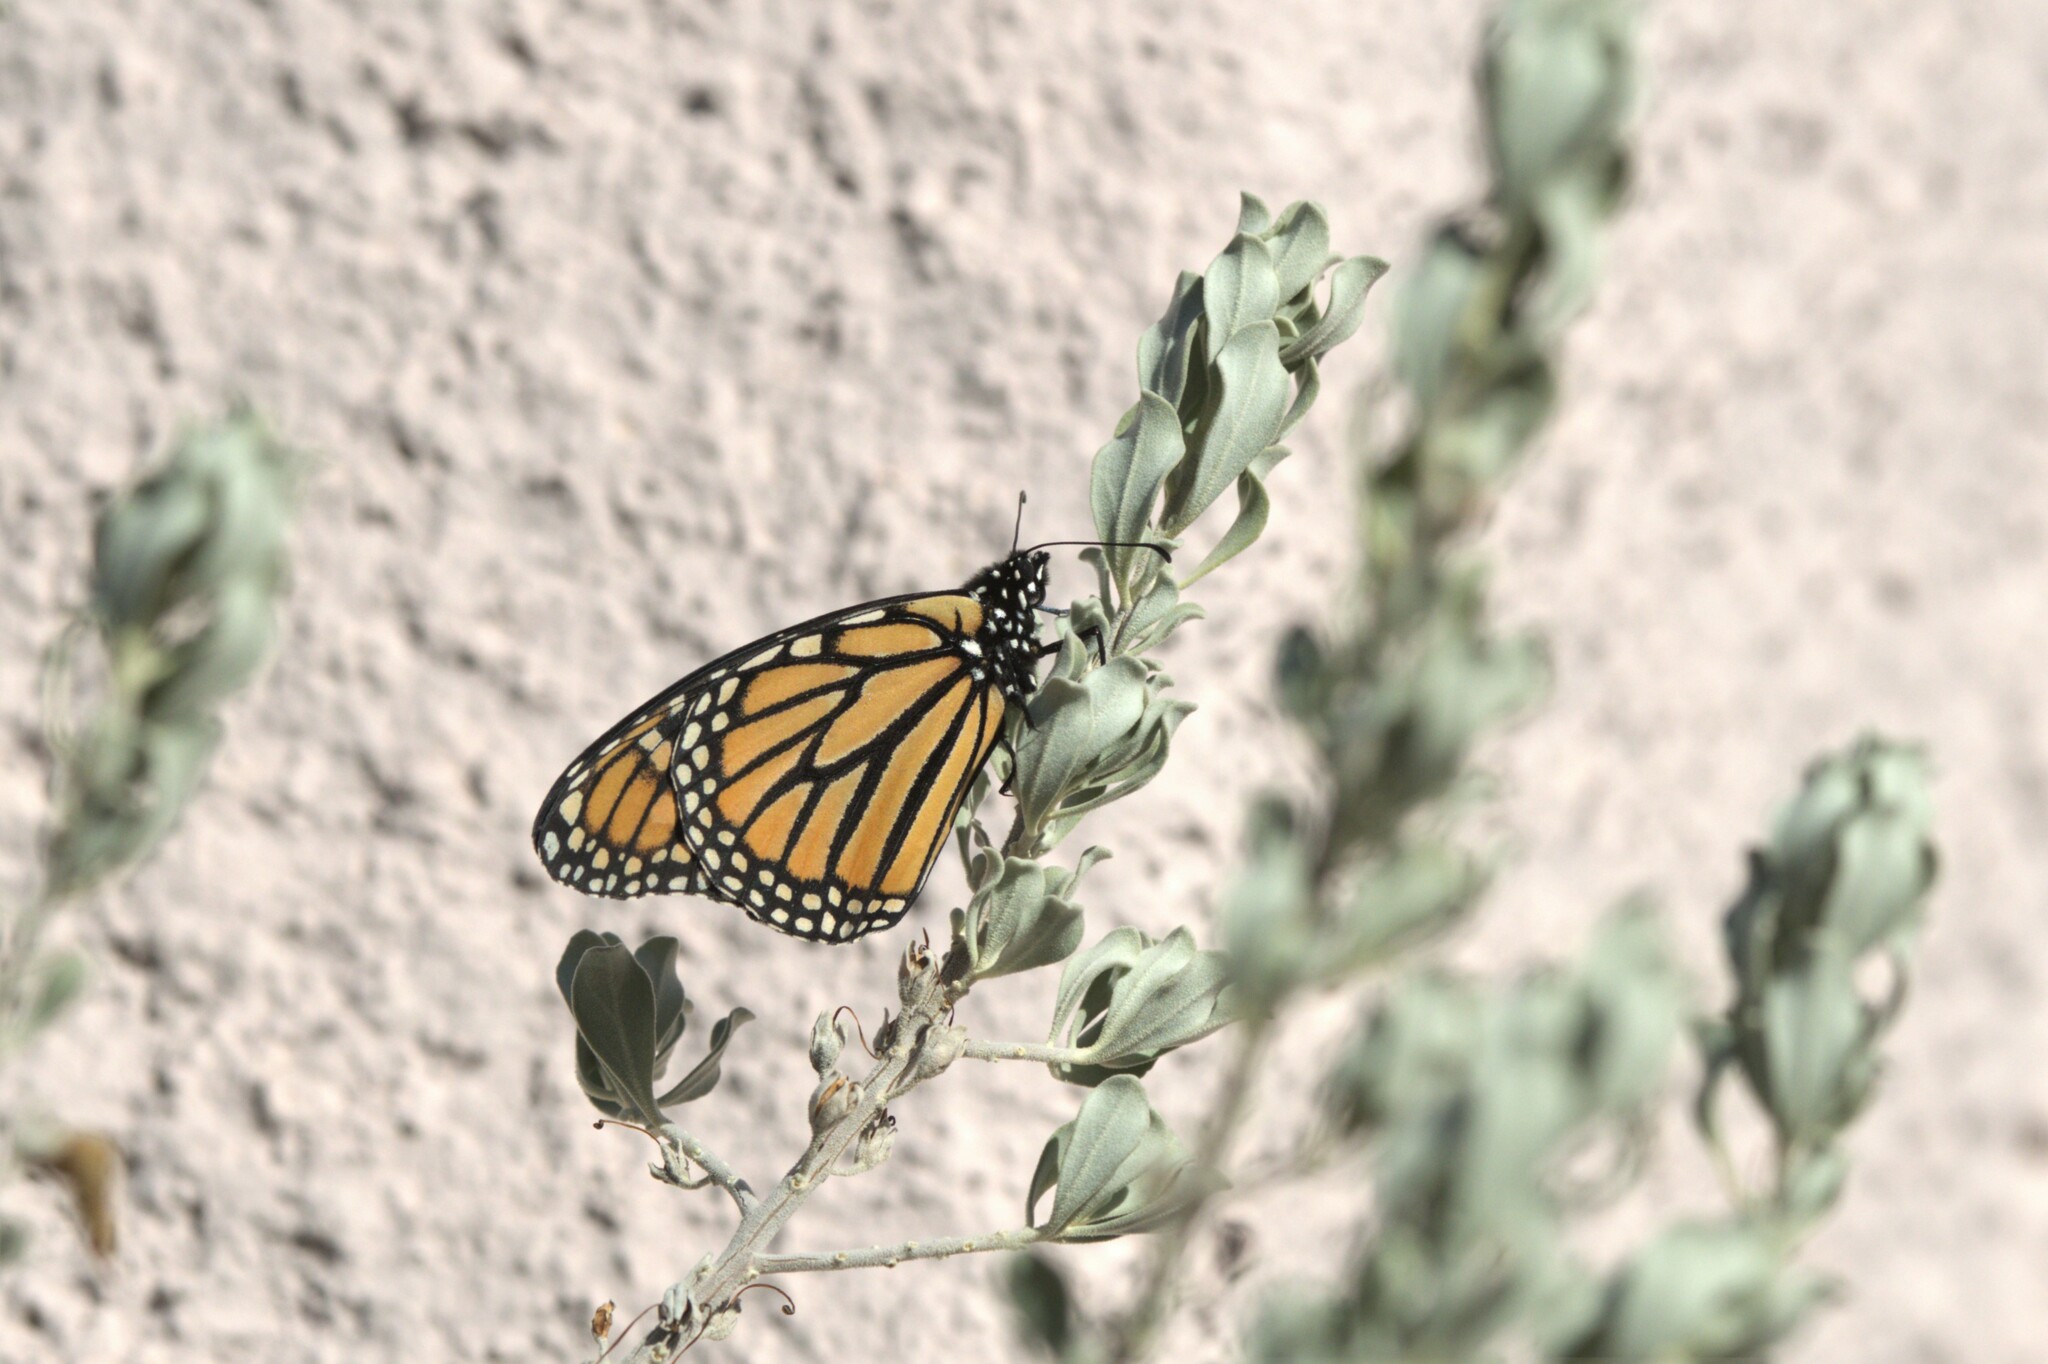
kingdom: Animalia
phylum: Arthropoda
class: Insecta
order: Lepidoptera
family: Nymphalidae
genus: Danaus
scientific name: Danaus plexippus
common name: Monarch
